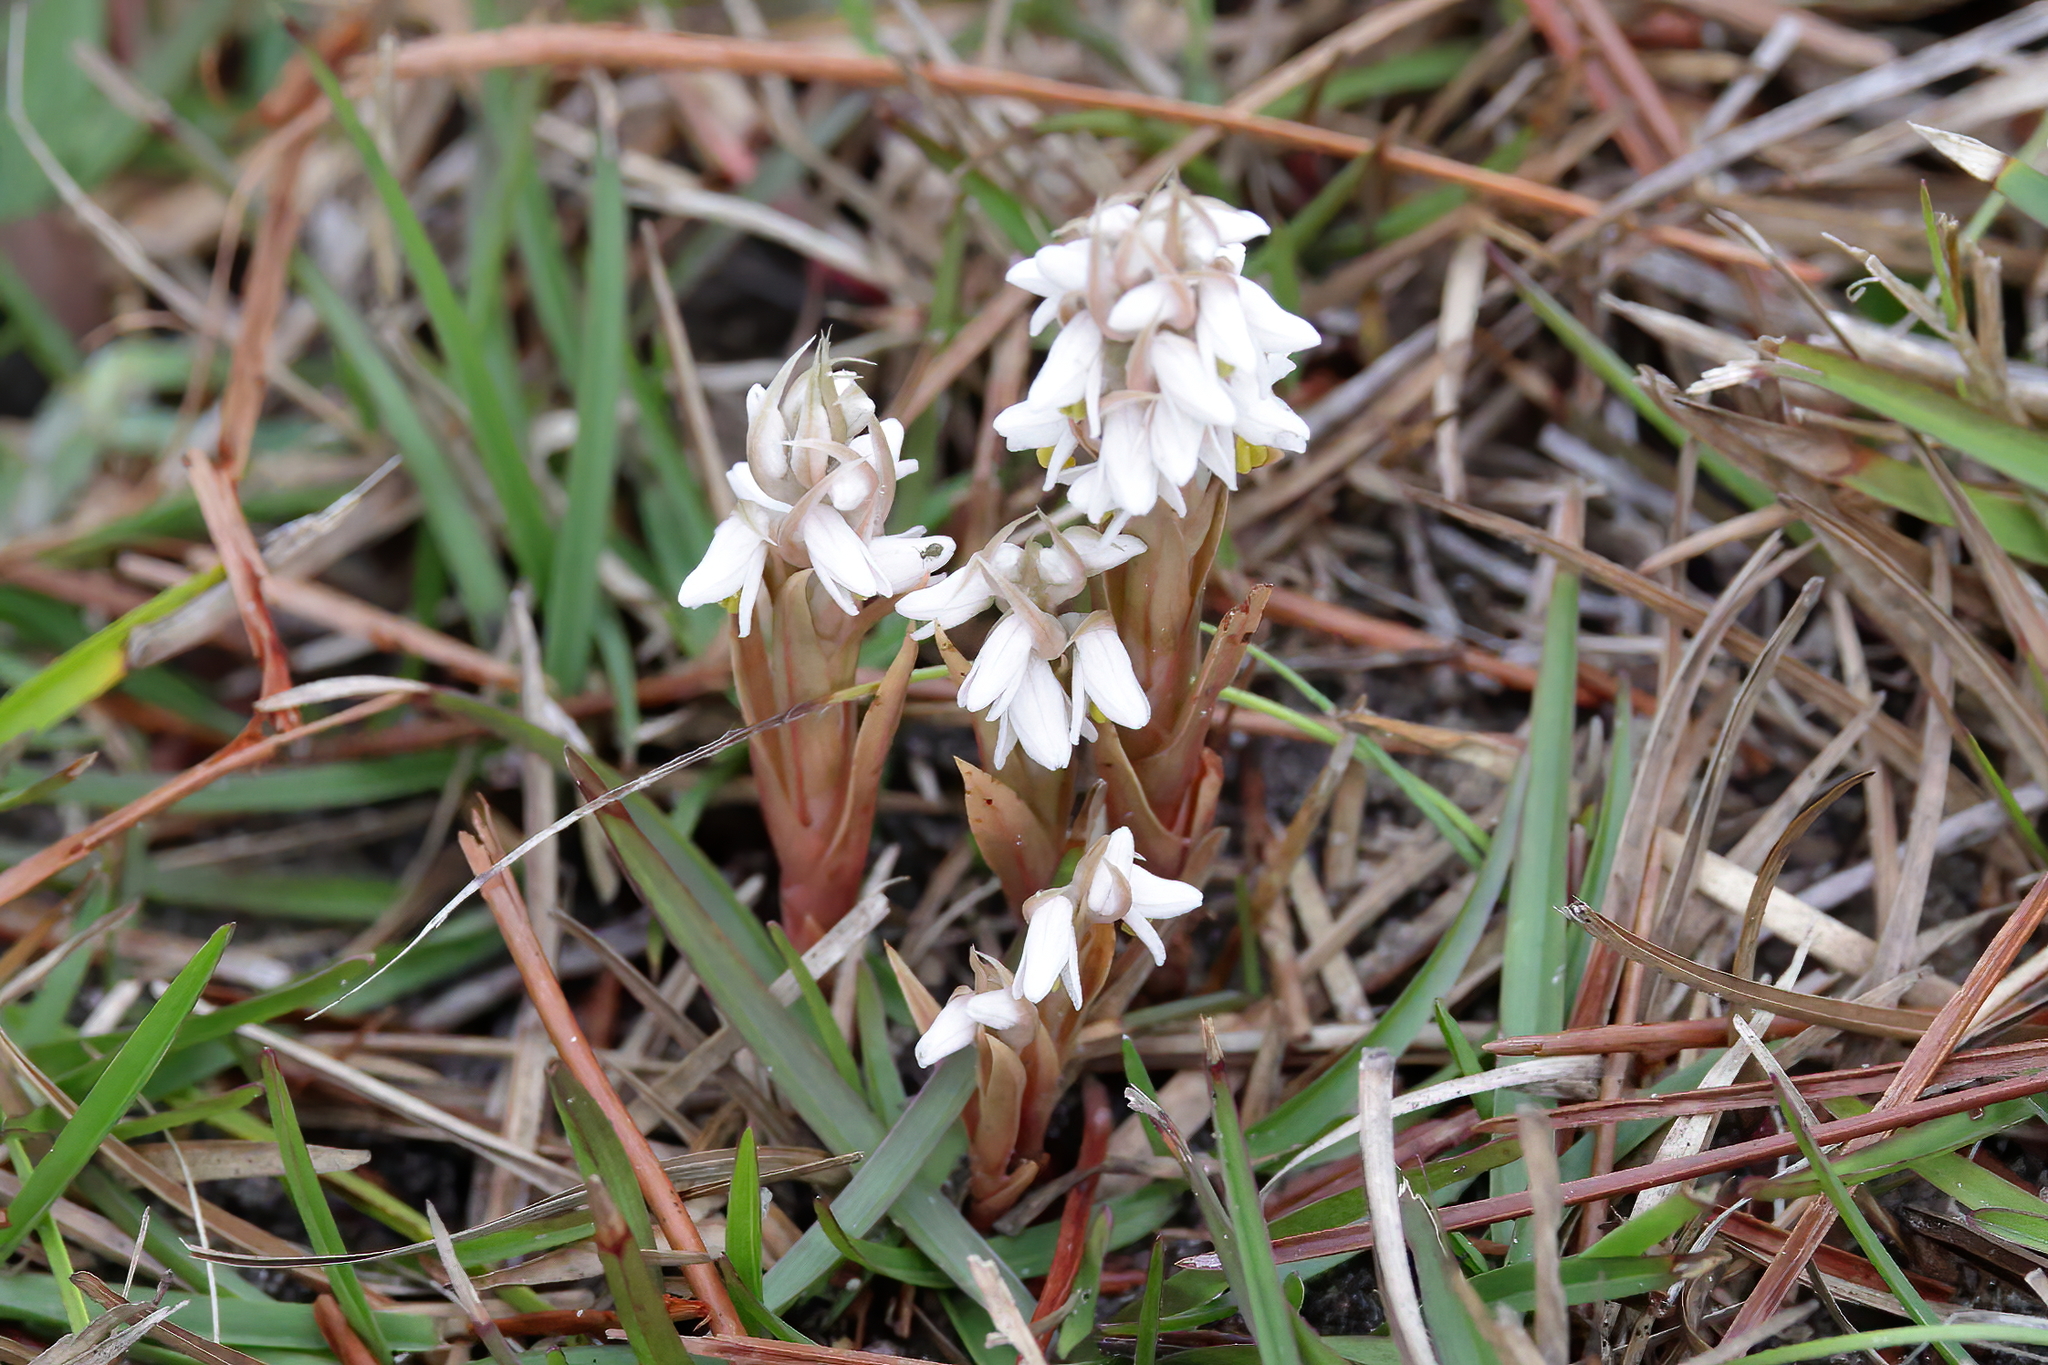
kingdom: Plantae
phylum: Tracheophyta
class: Liliopsida
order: Asparagales
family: Orchidaceae
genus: Zeuxine
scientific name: Zeuxine strateumatica
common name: Soldier's orchid
